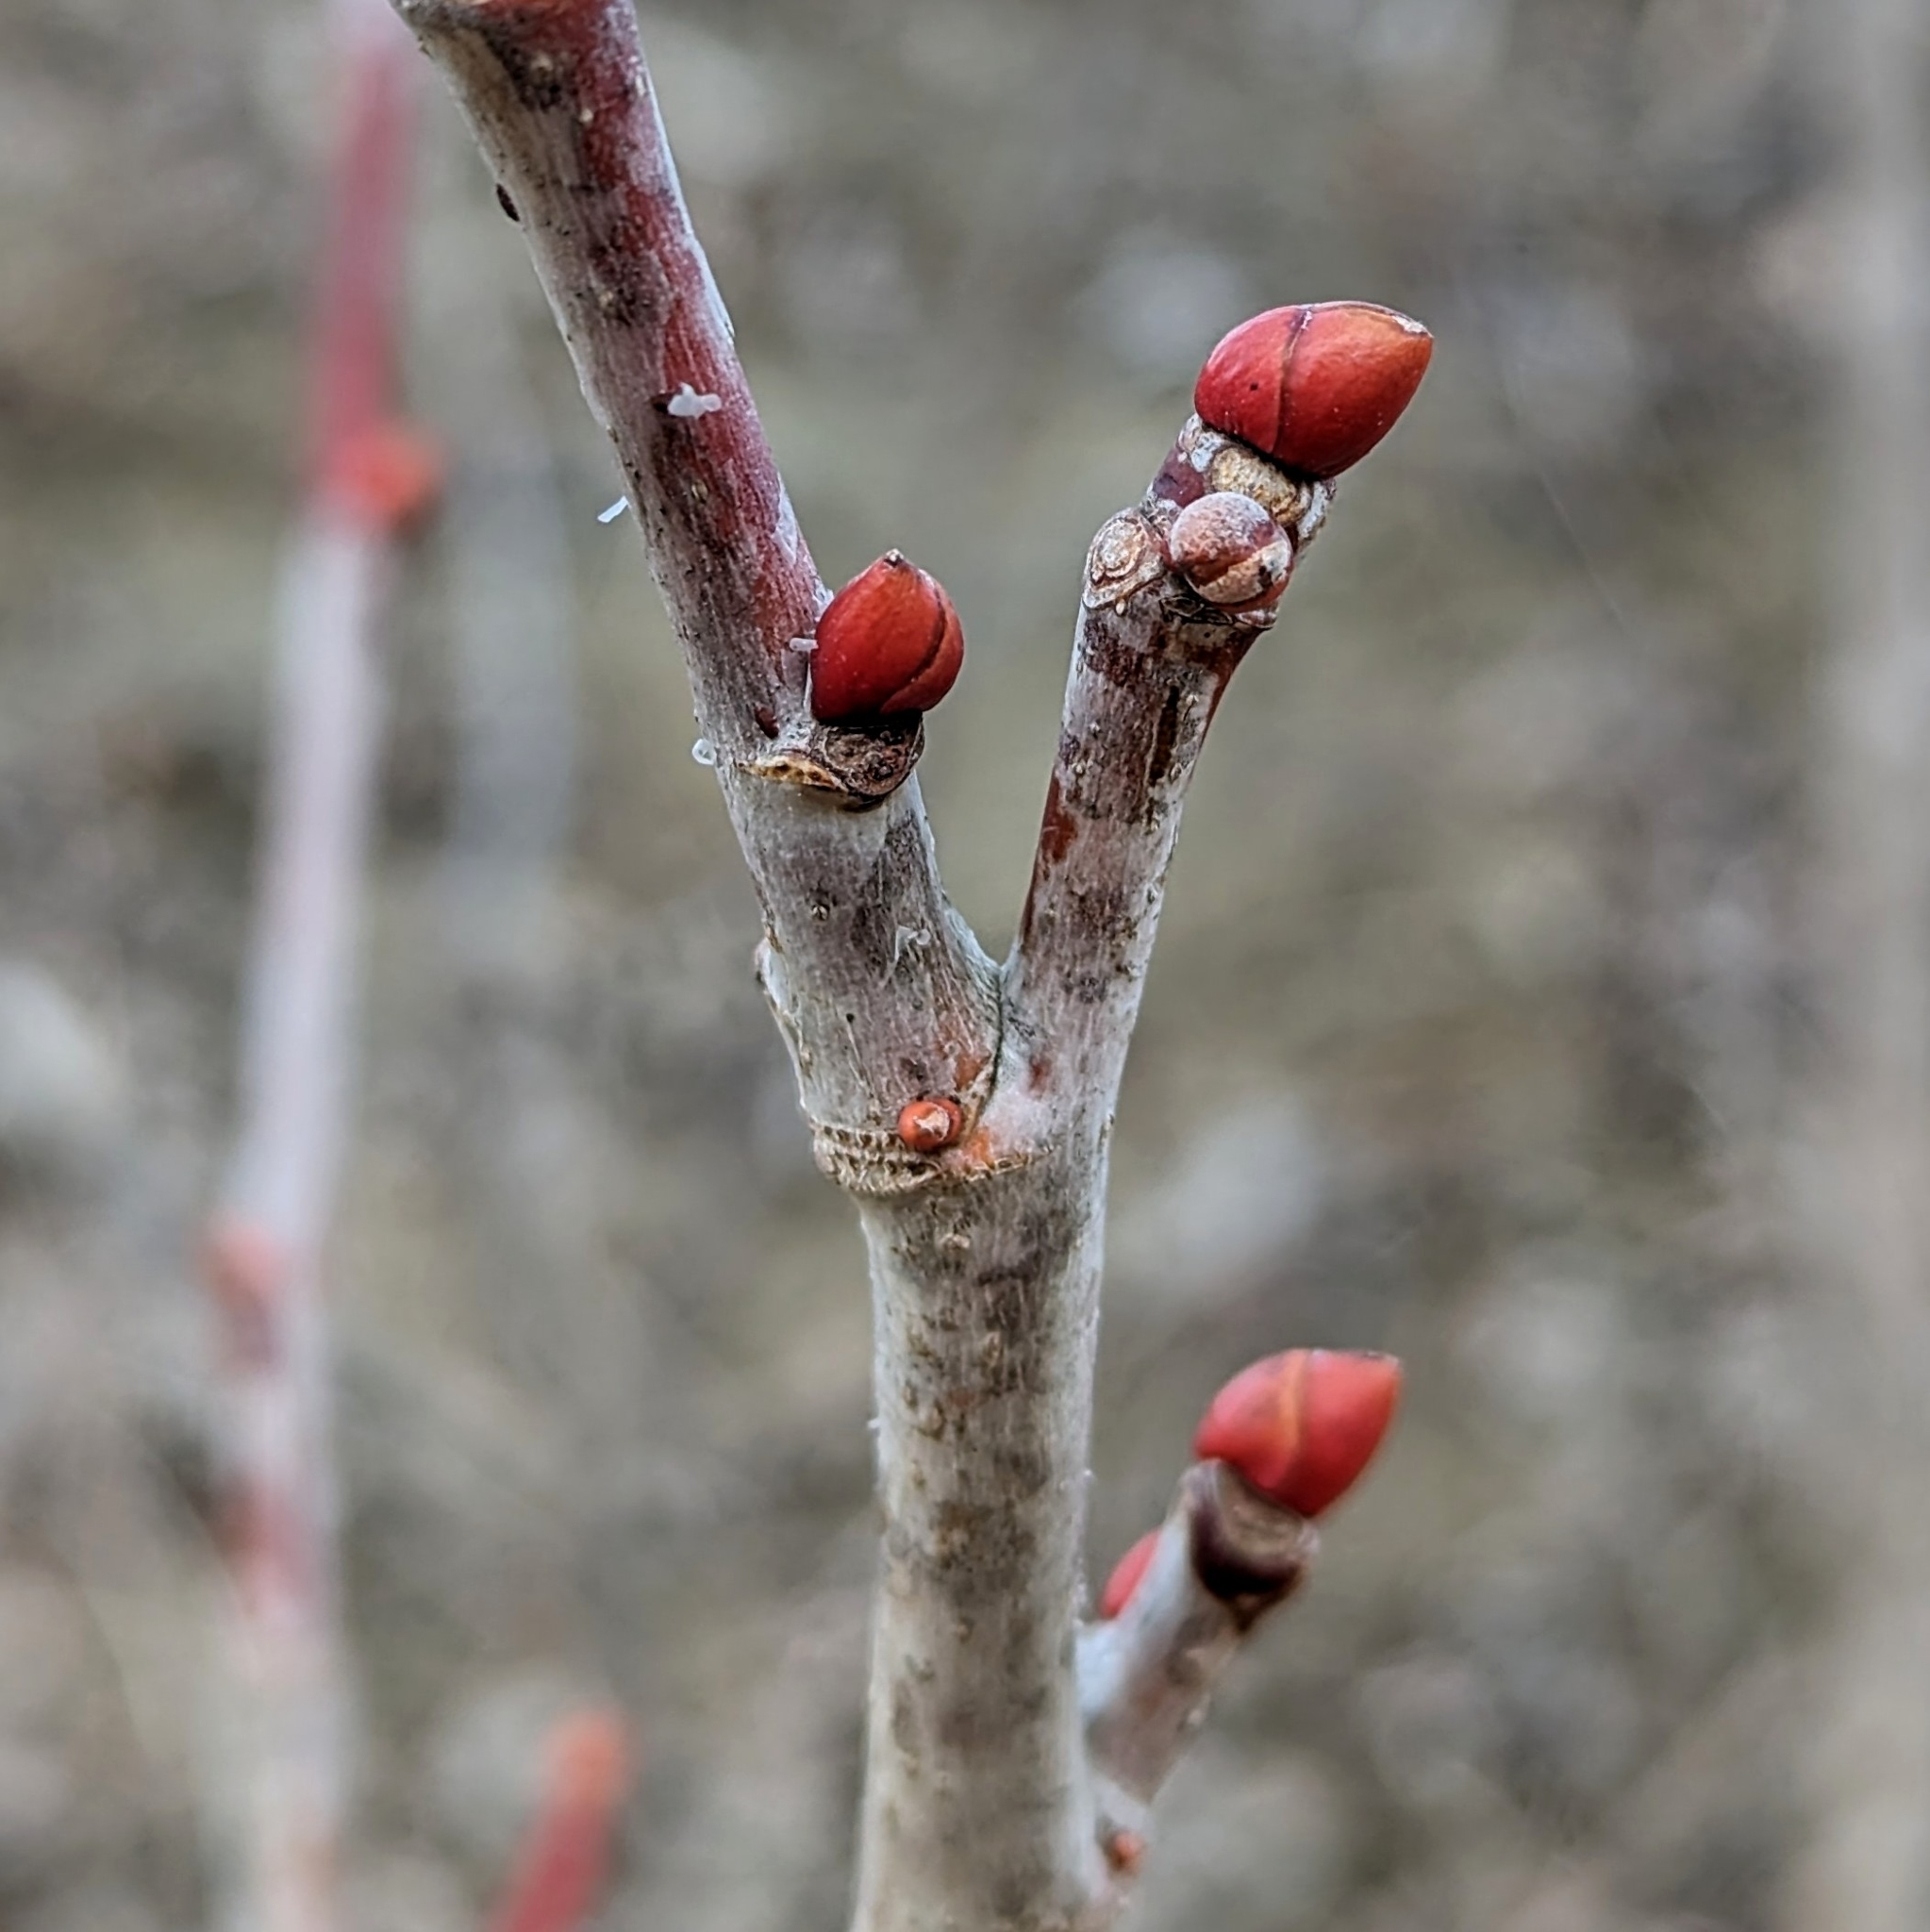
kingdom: Plantae
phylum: Tracheophyta
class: Magnoliopsida
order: Malvales
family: Malvaceae
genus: Tilia
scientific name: Tilia americana
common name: Basswood
